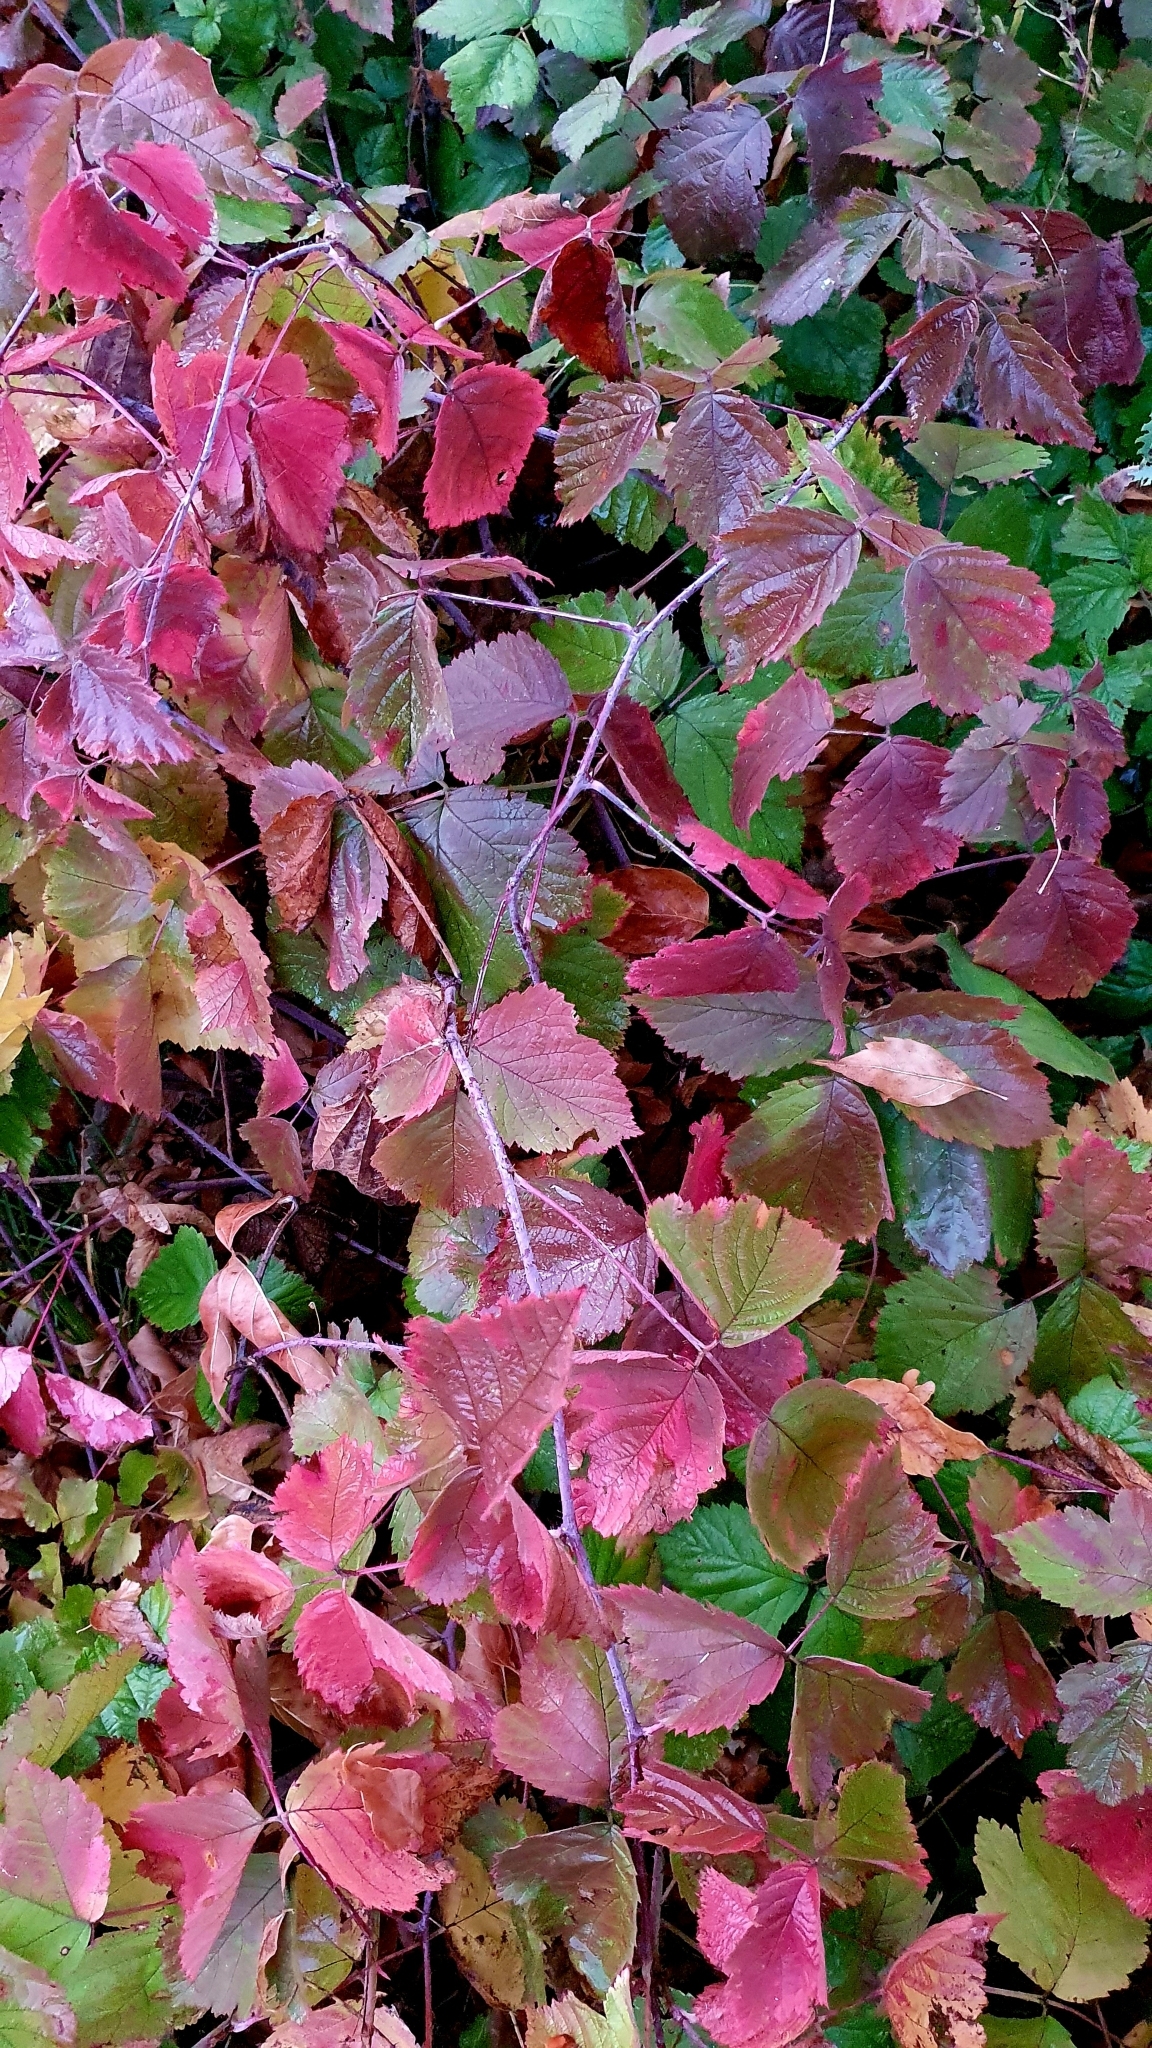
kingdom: Plantae
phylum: Tracheophyta
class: Magnoliopsida
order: Rosales
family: Rosaceae
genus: Rubus
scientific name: Rubus caesius
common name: Dewberry
